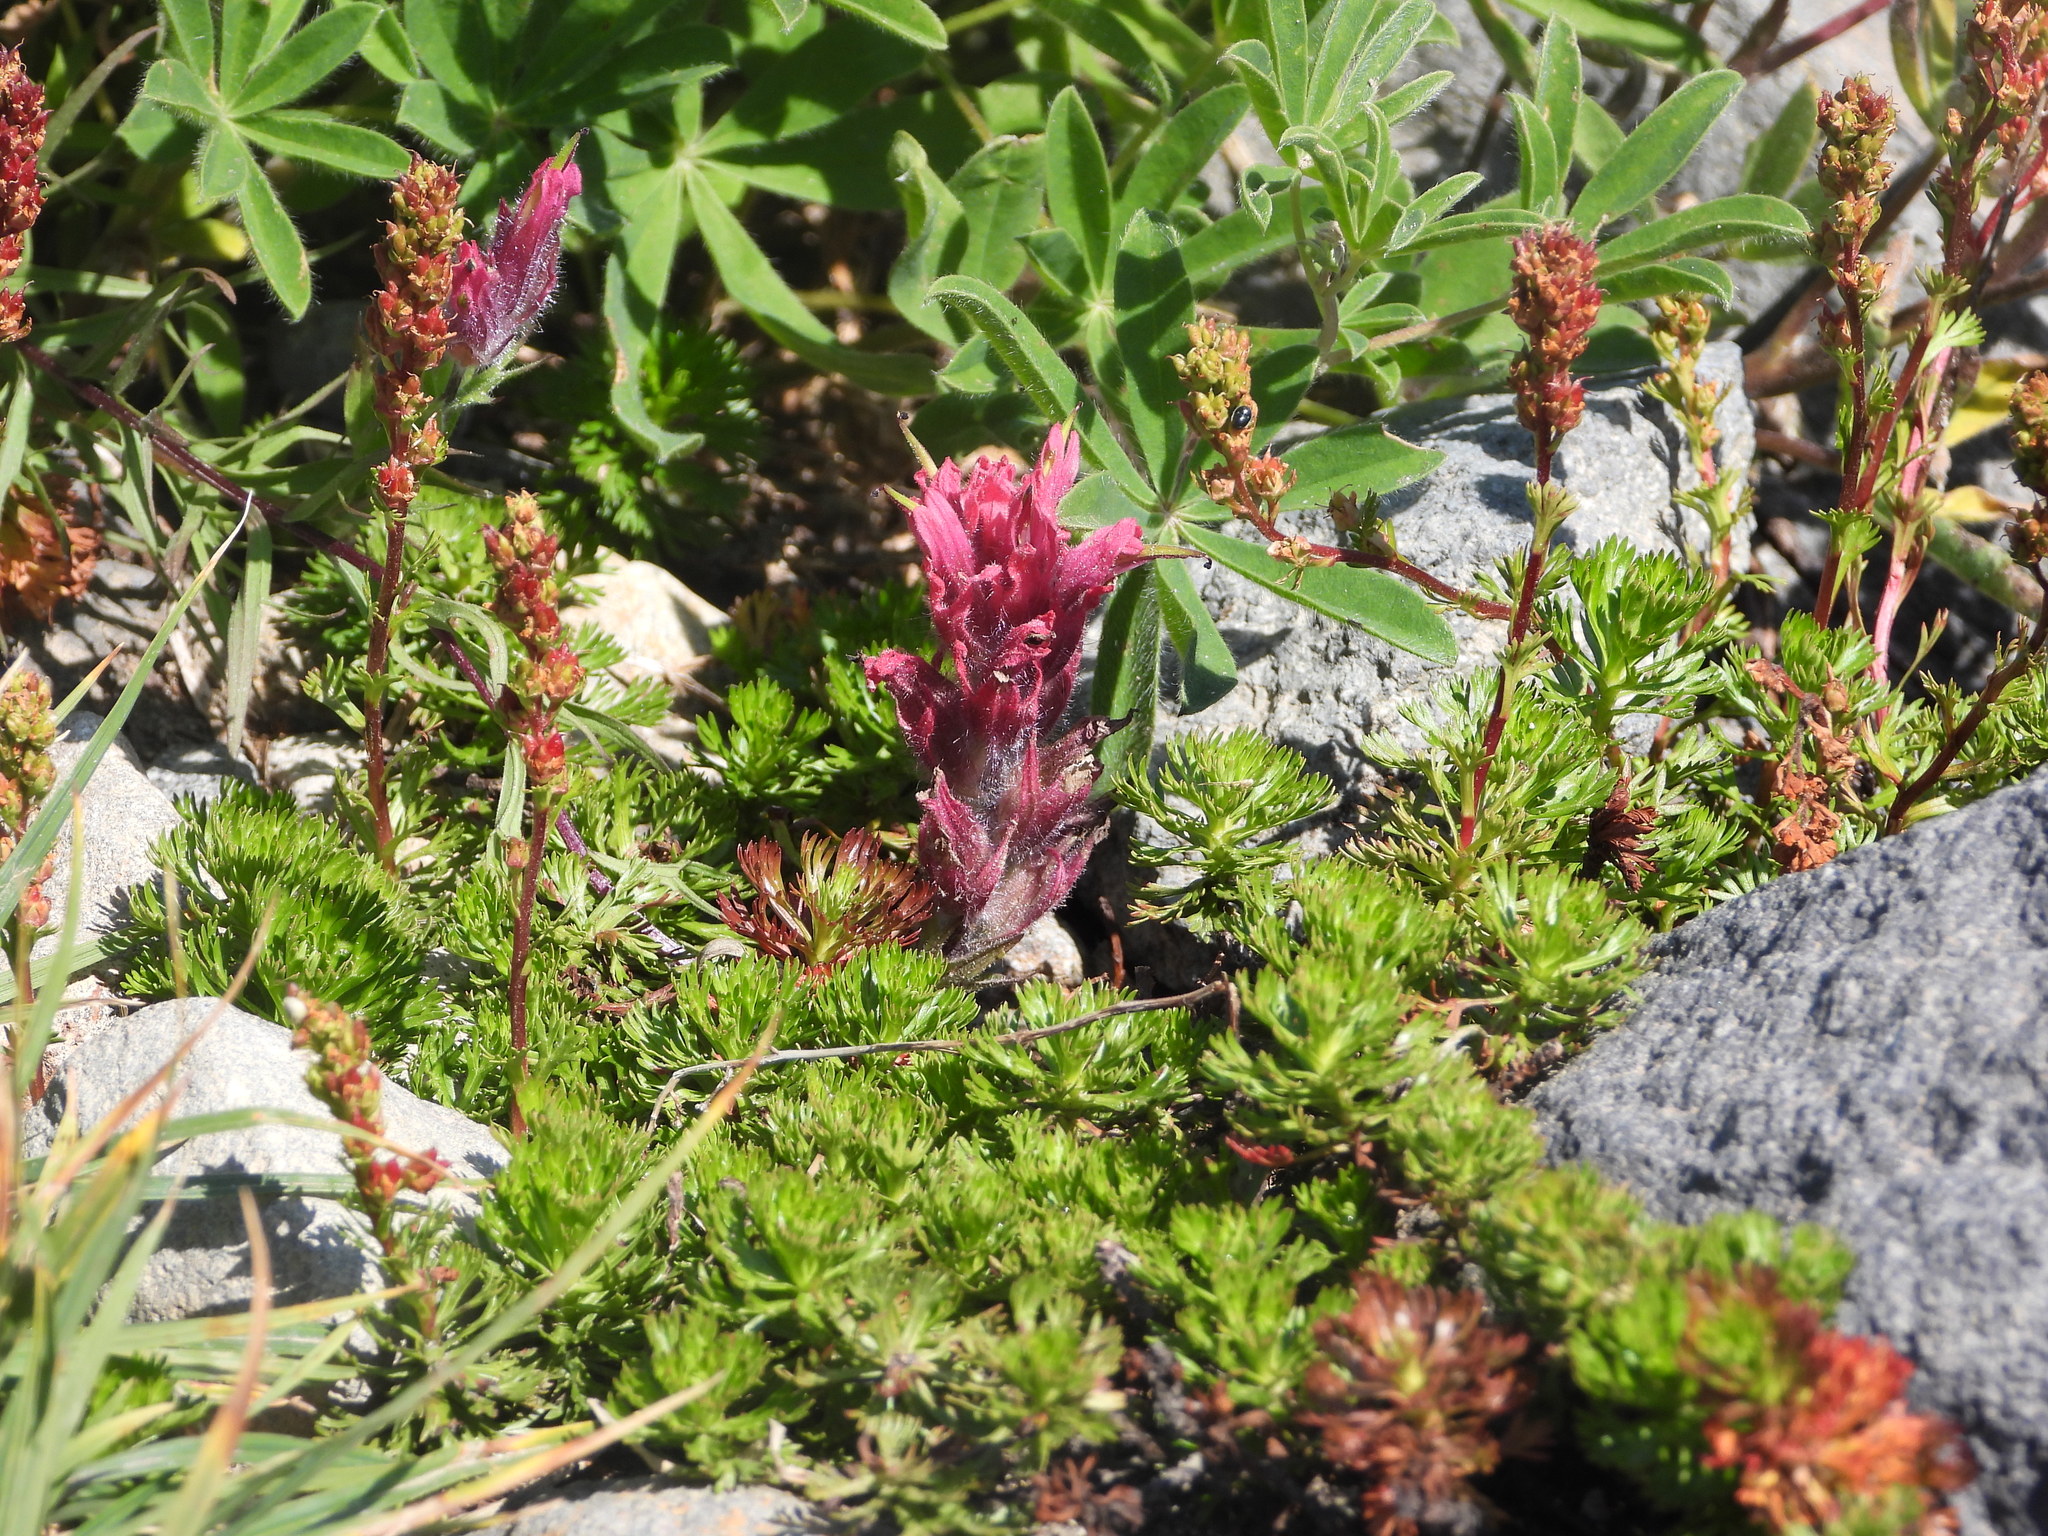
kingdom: Plantae
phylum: Tracheophyta
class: Magnoliopsida
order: Rosales
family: Rosaceae
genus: Luetkea
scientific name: Luetkea pectinata
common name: Partridgefoot
